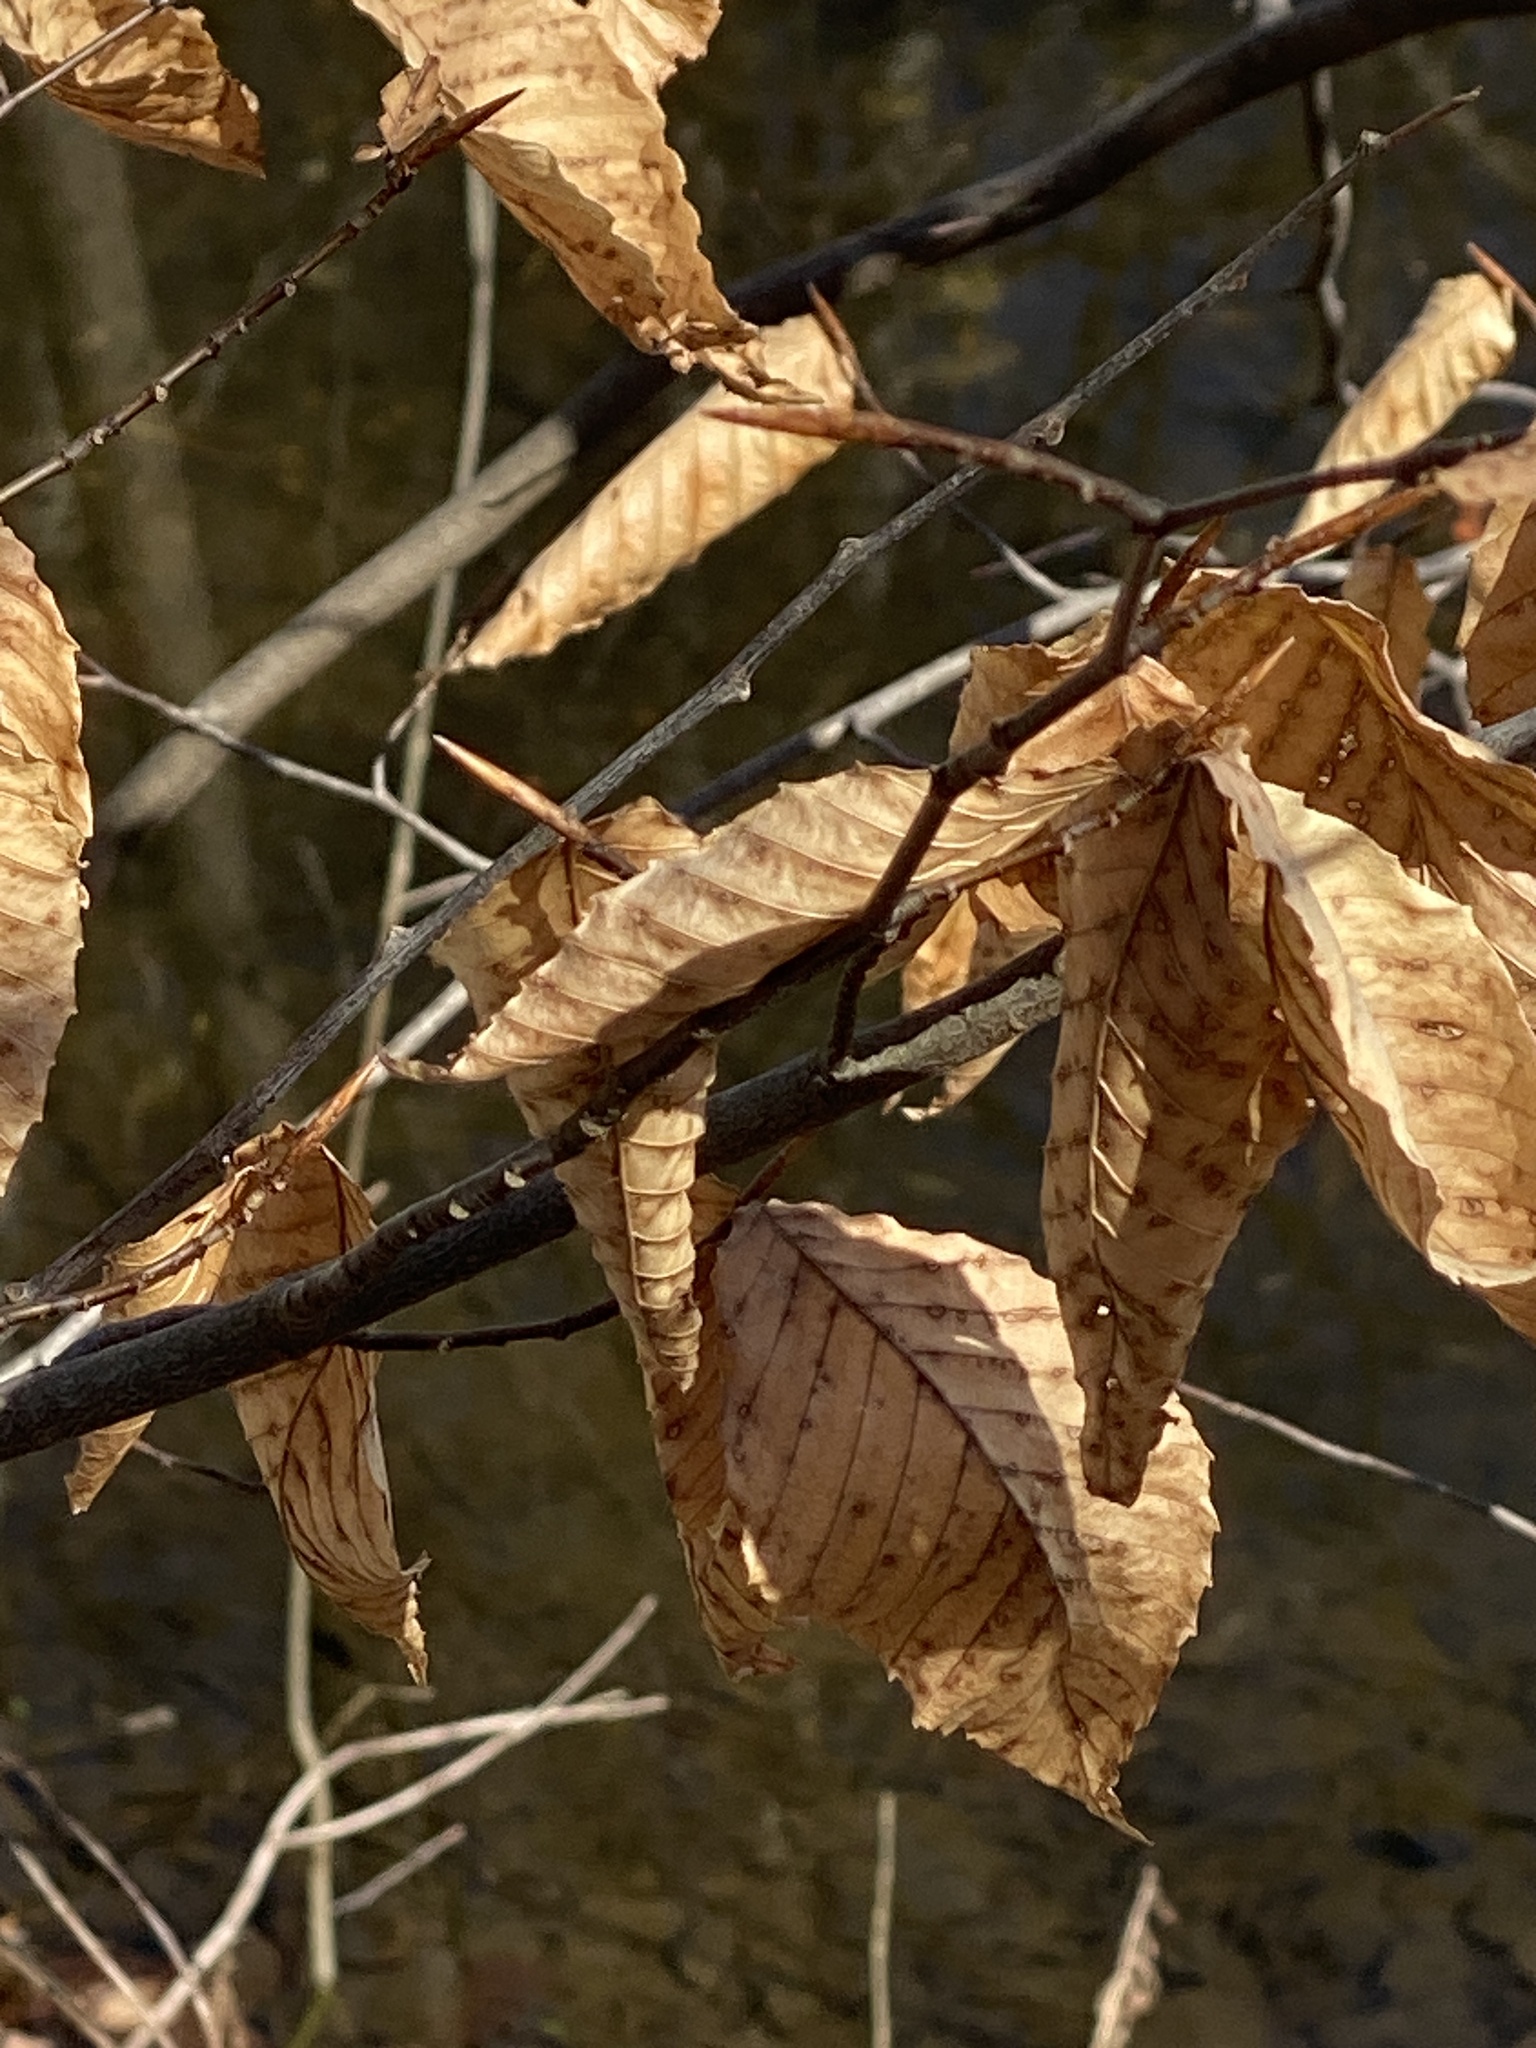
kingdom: Plantae
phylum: Tracheophyta
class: Magnoliopsida
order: Fagales
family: Fagaceae
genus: Fagus
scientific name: Fagus grandifolia
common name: American beech
